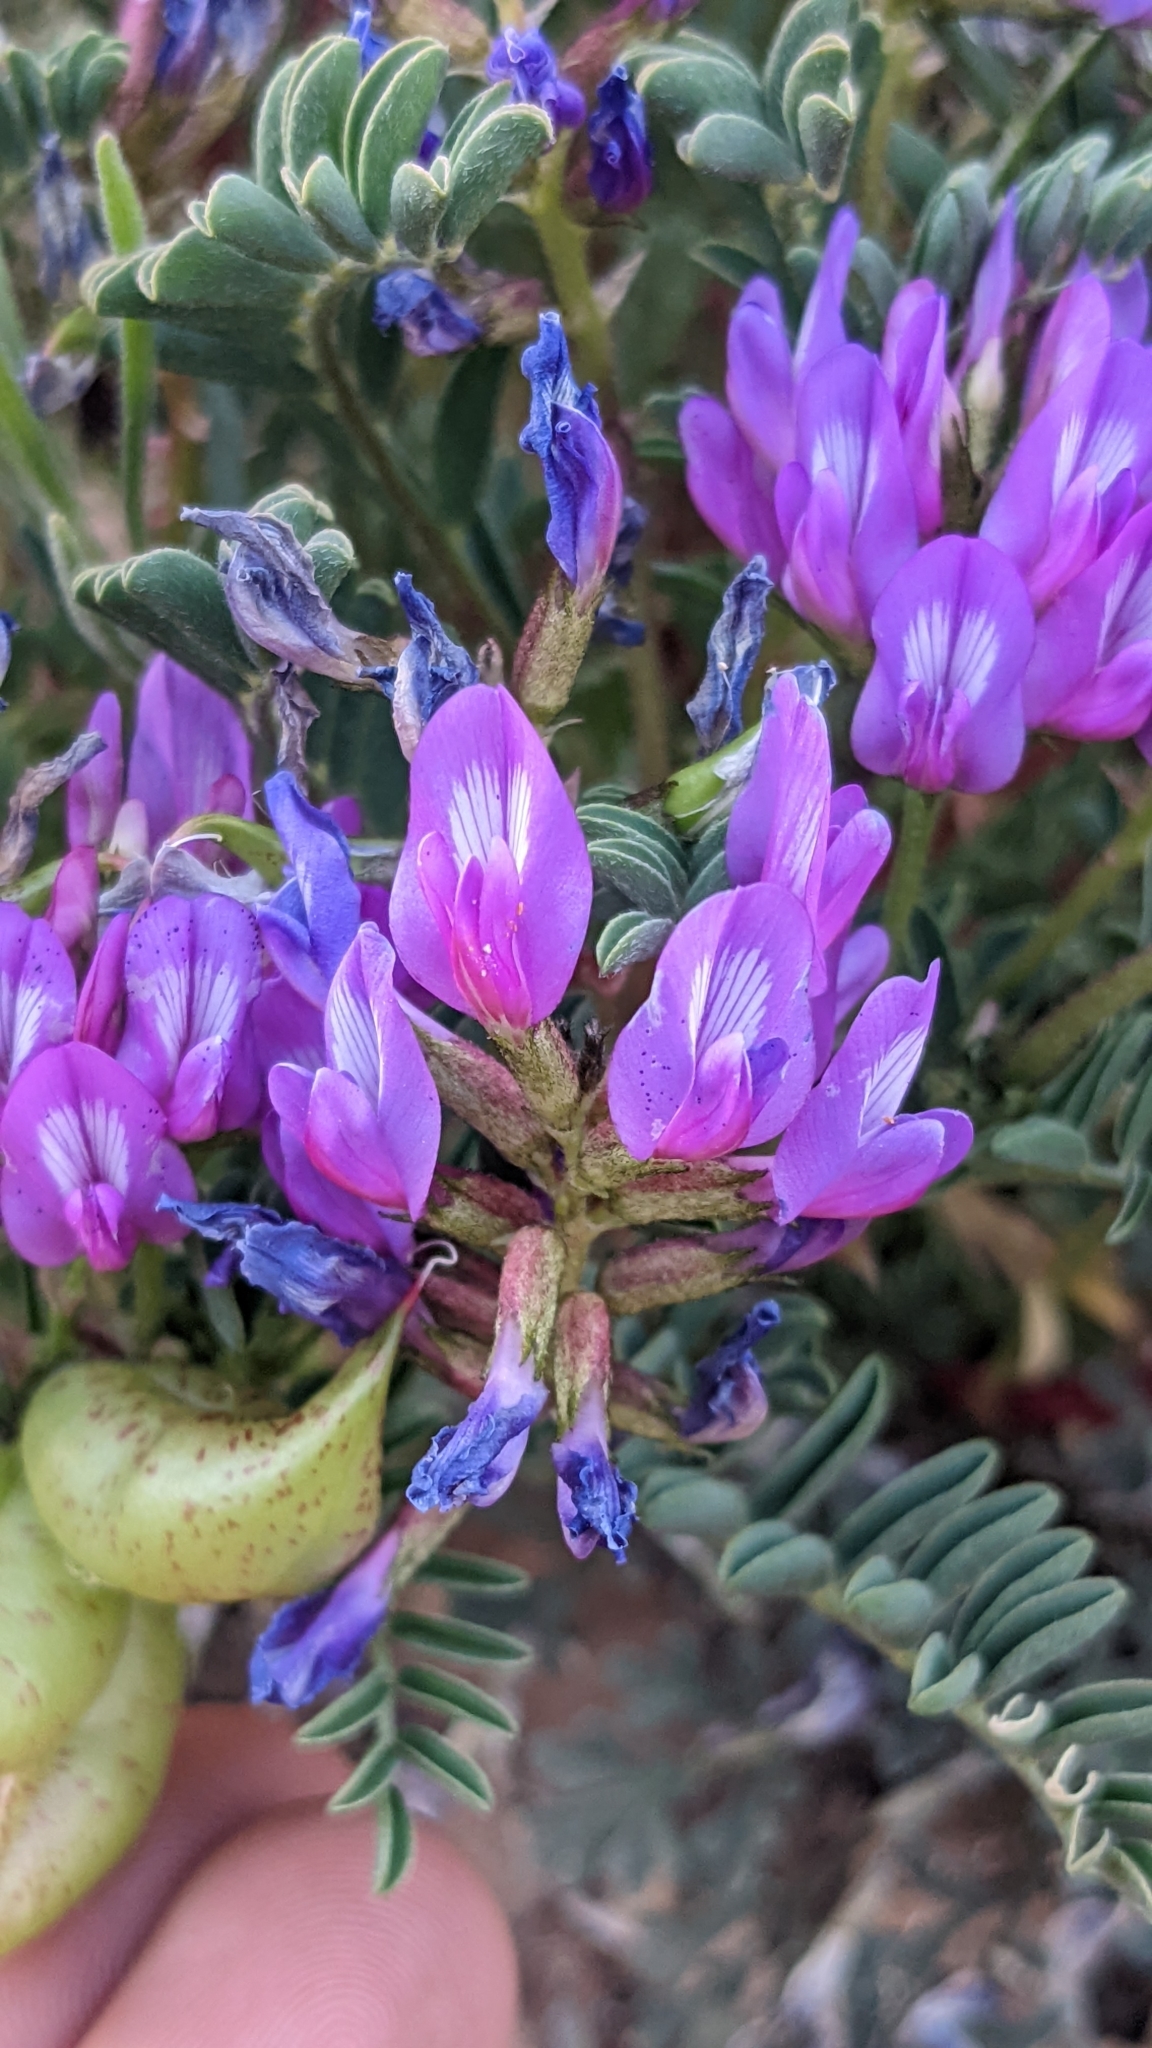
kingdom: Plantae
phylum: Tracheophyta
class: Magnoliopsida
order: Fabales
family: Fabaceae
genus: Astragalus
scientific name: Astragalus lentiginosus
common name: Freckled milkvetch
